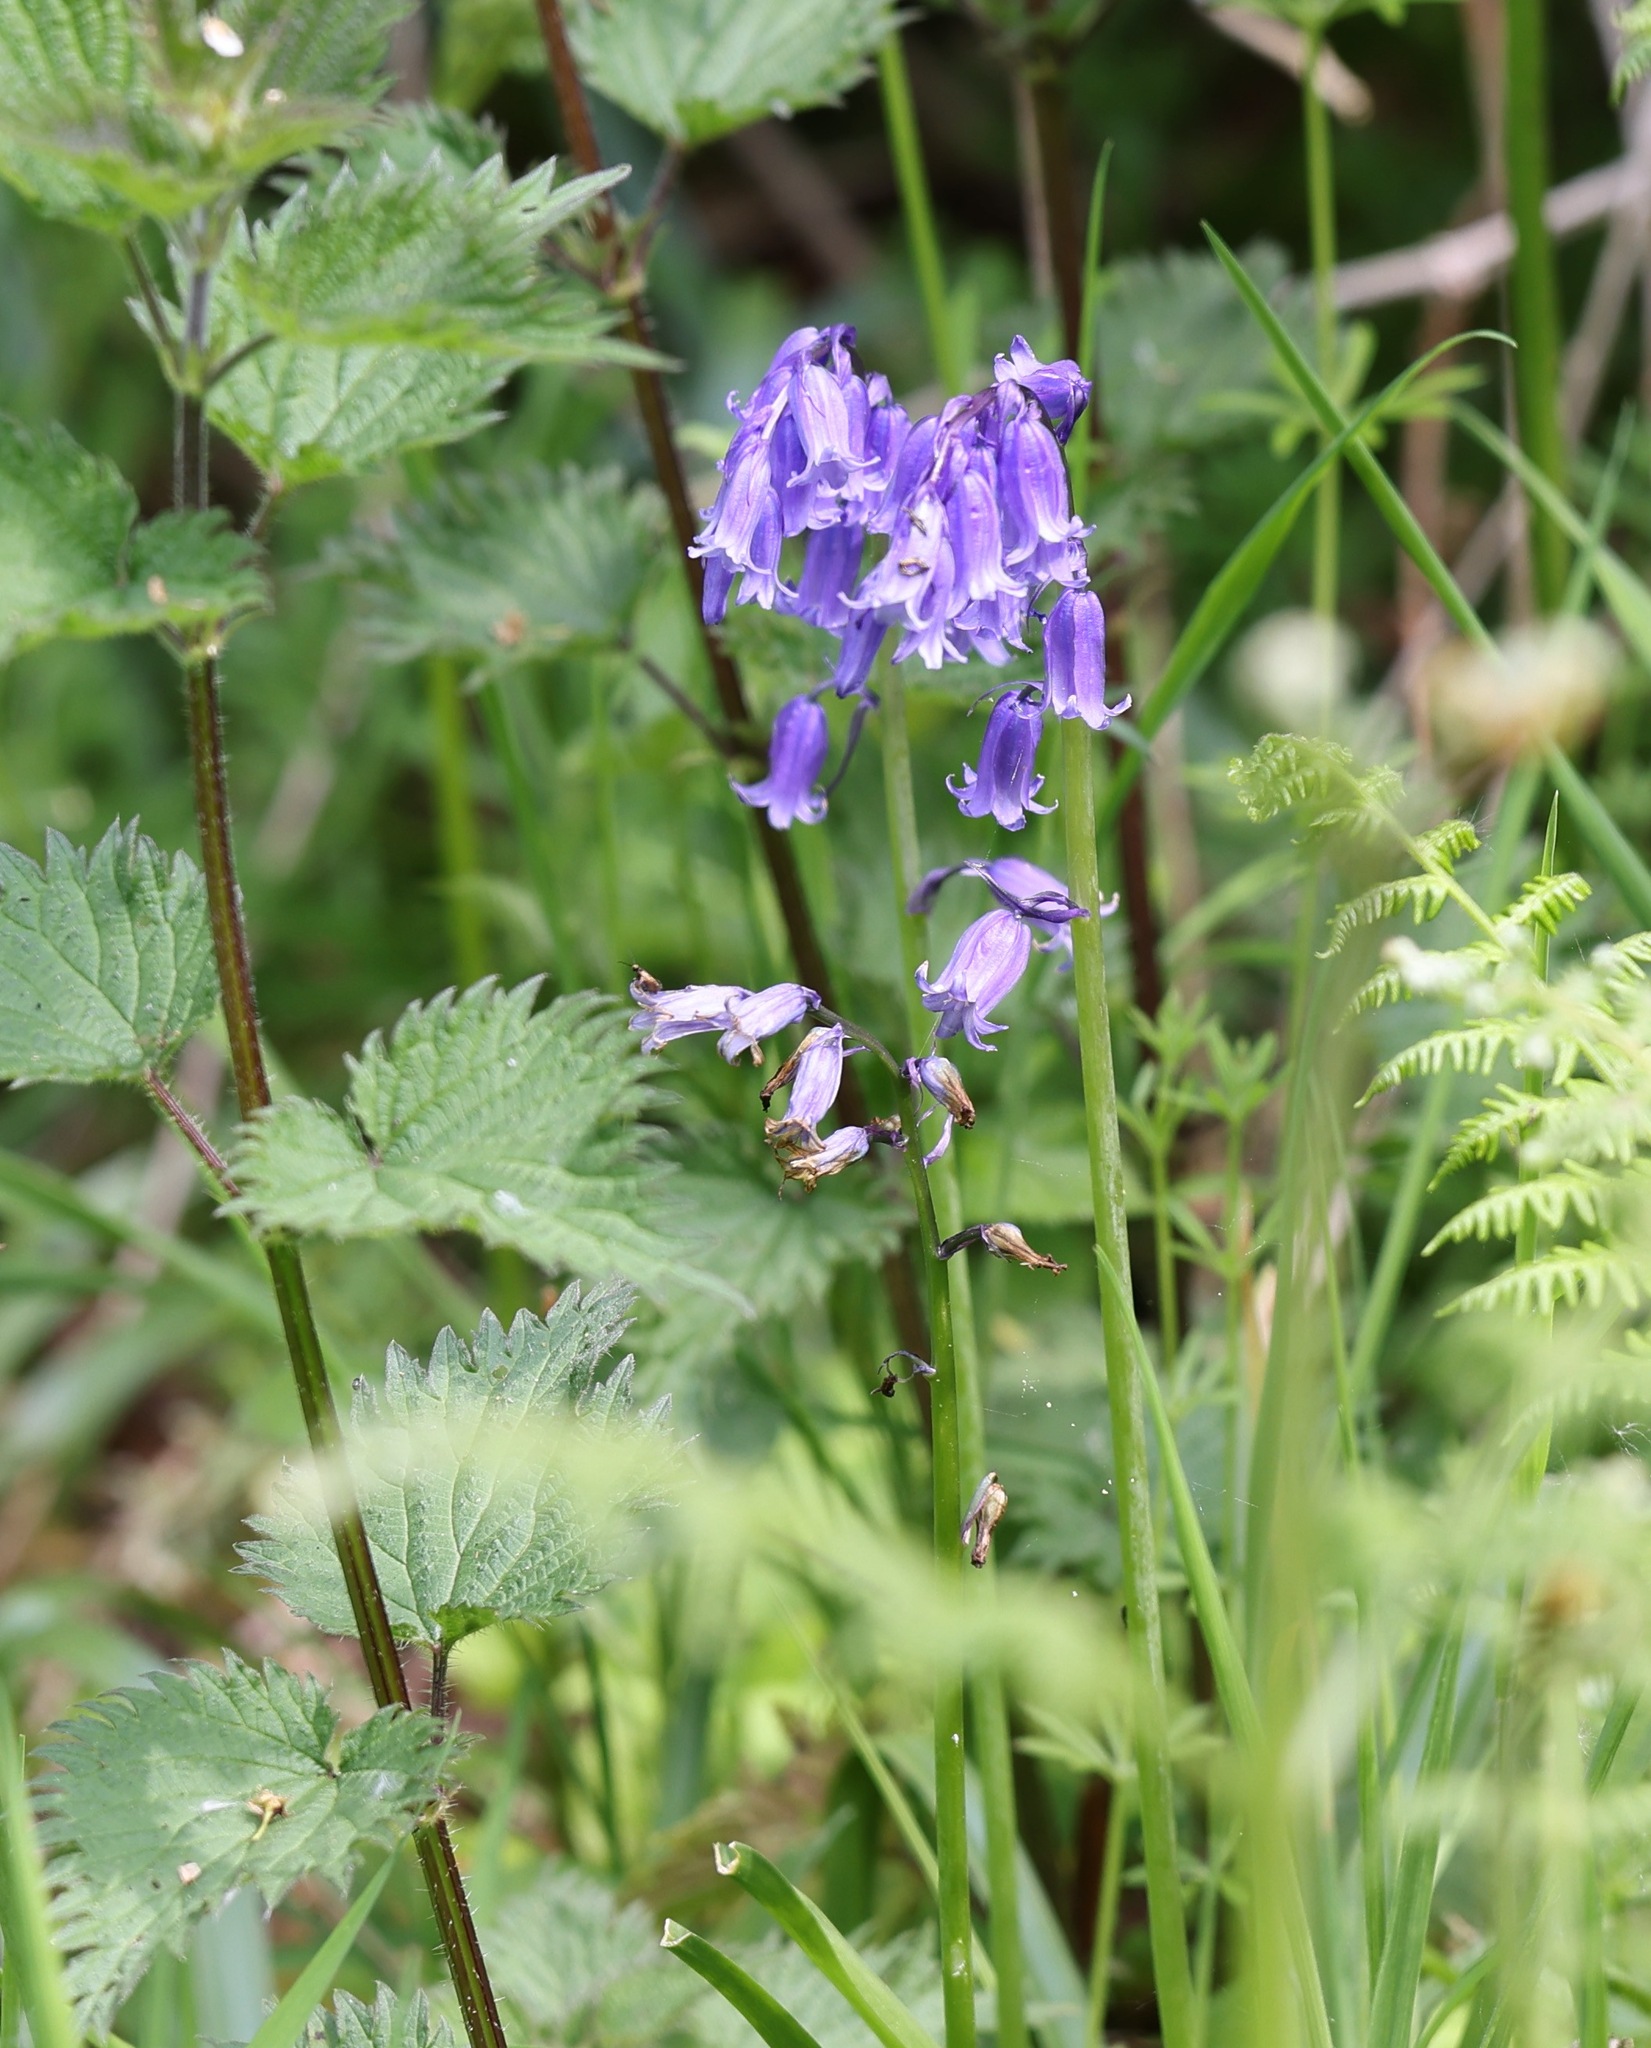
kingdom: Plantae
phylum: Tracheophyta
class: Liliopsida
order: Asparagales
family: Asparagaceae
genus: Hyacinthoides
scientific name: Hyacinthoides non-scripta
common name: Bluebell
